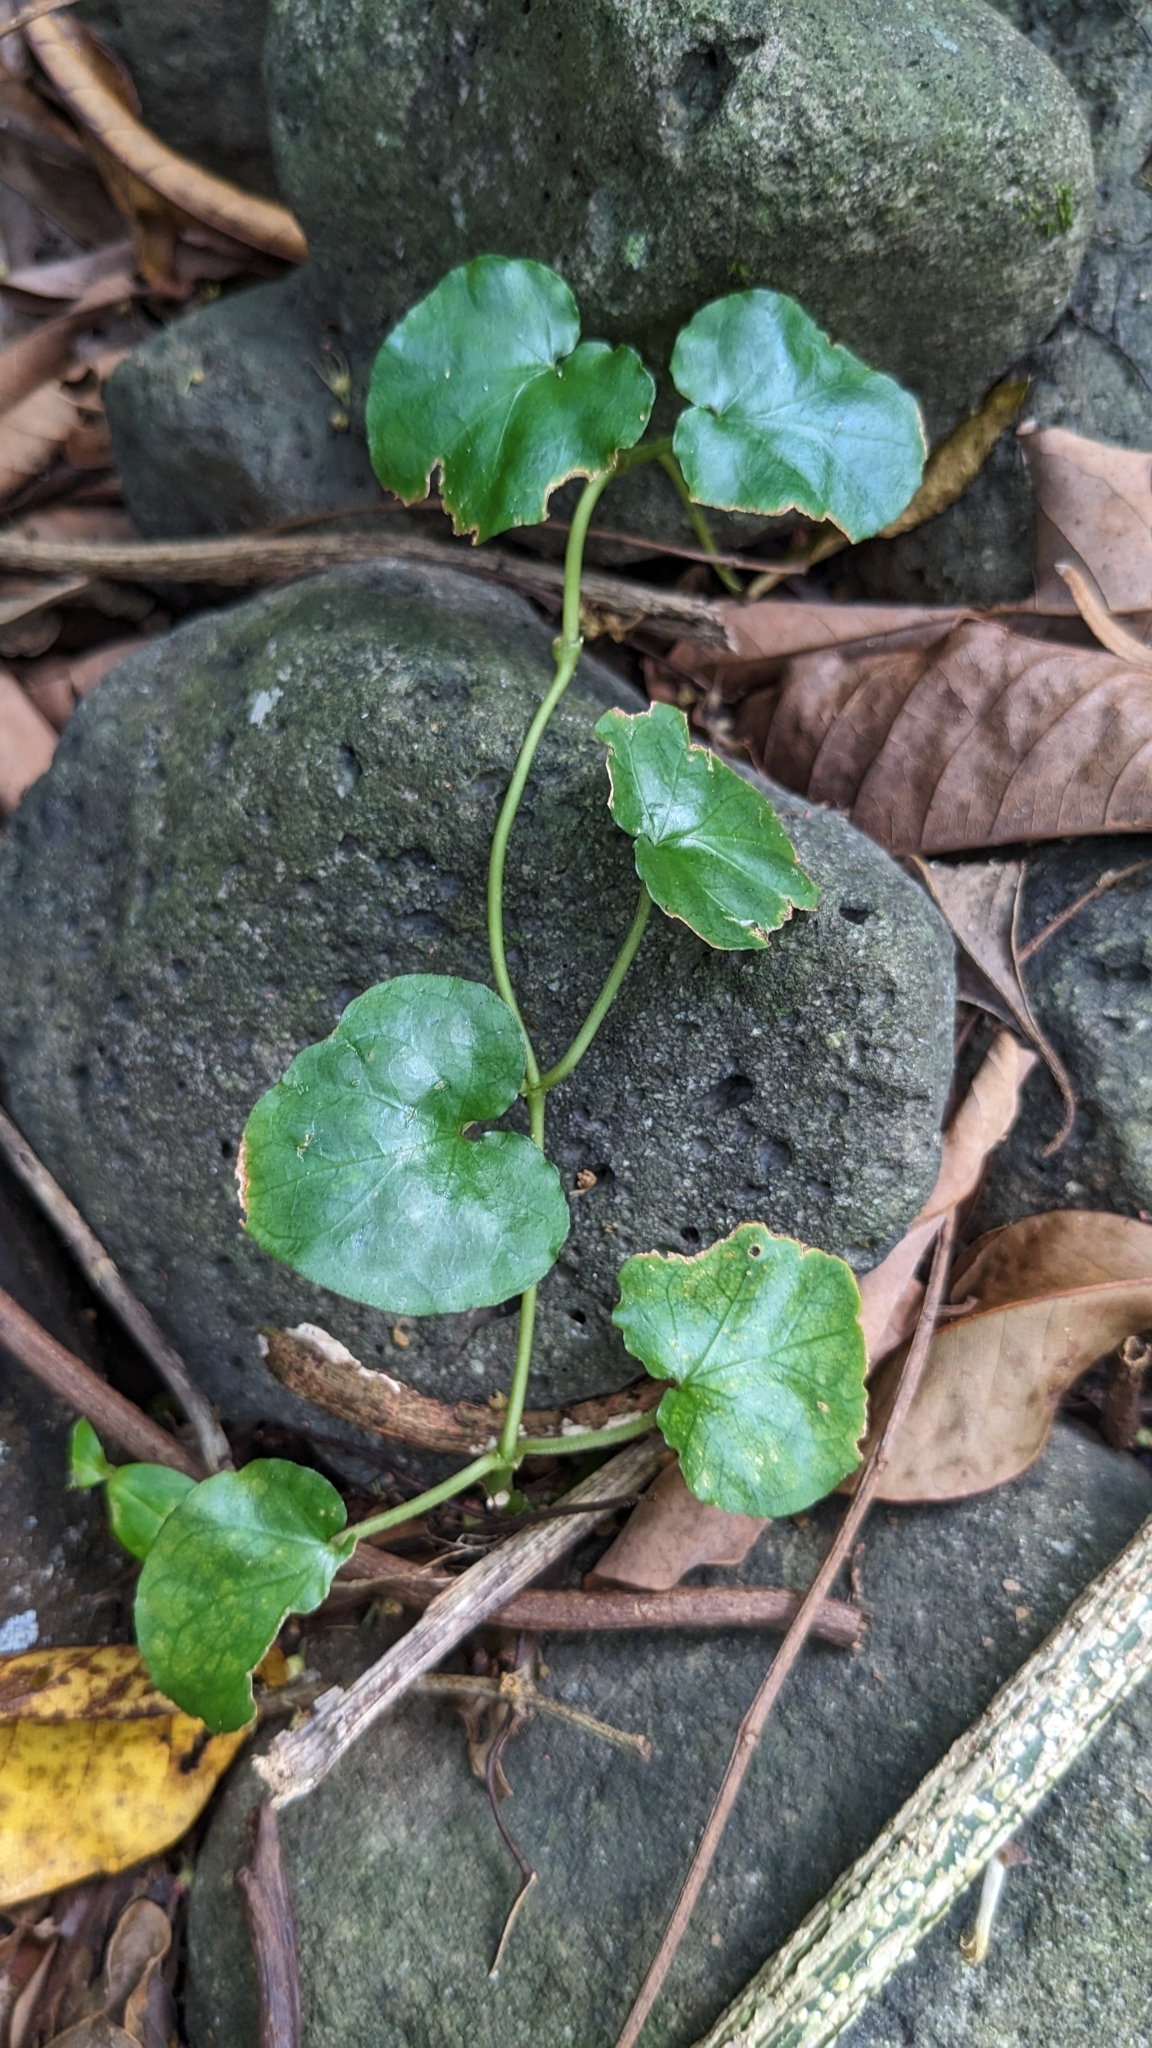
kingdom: Plantae
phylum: Tracheophyta
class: Magnoliopsida
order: Gentianales
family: Rubiaceae
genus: Geophila
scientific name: Geophila herbacea
